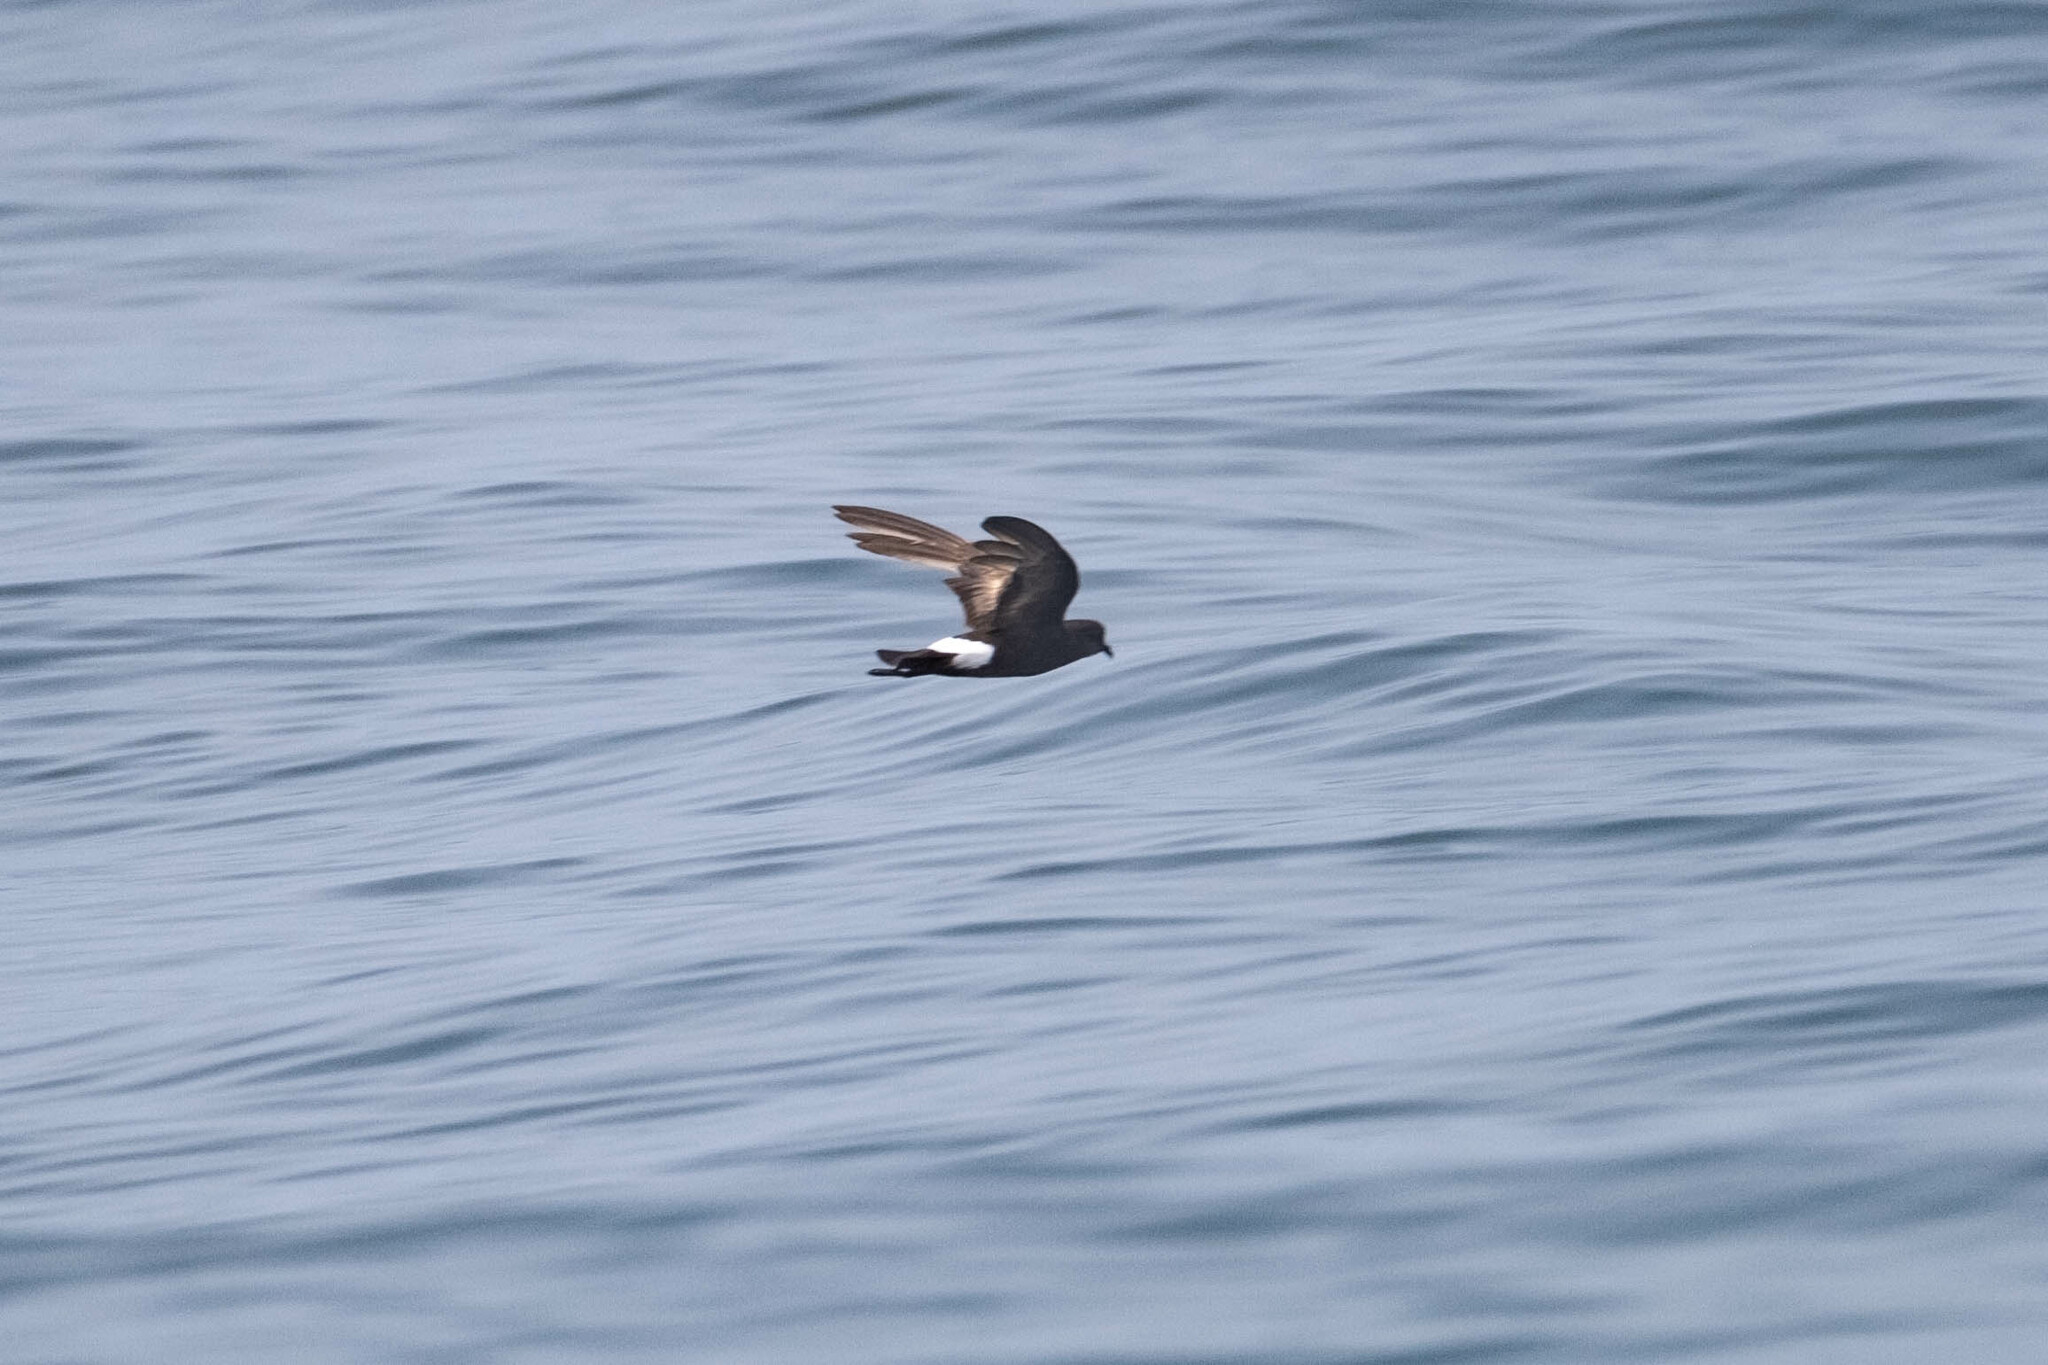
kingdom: Animalia
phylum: Chordata
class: Aves
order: Procellariiformes
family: Hydrobatidae
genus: Oceanites
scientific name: Oceanites oceanicus
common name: Wilson's storm petrel
